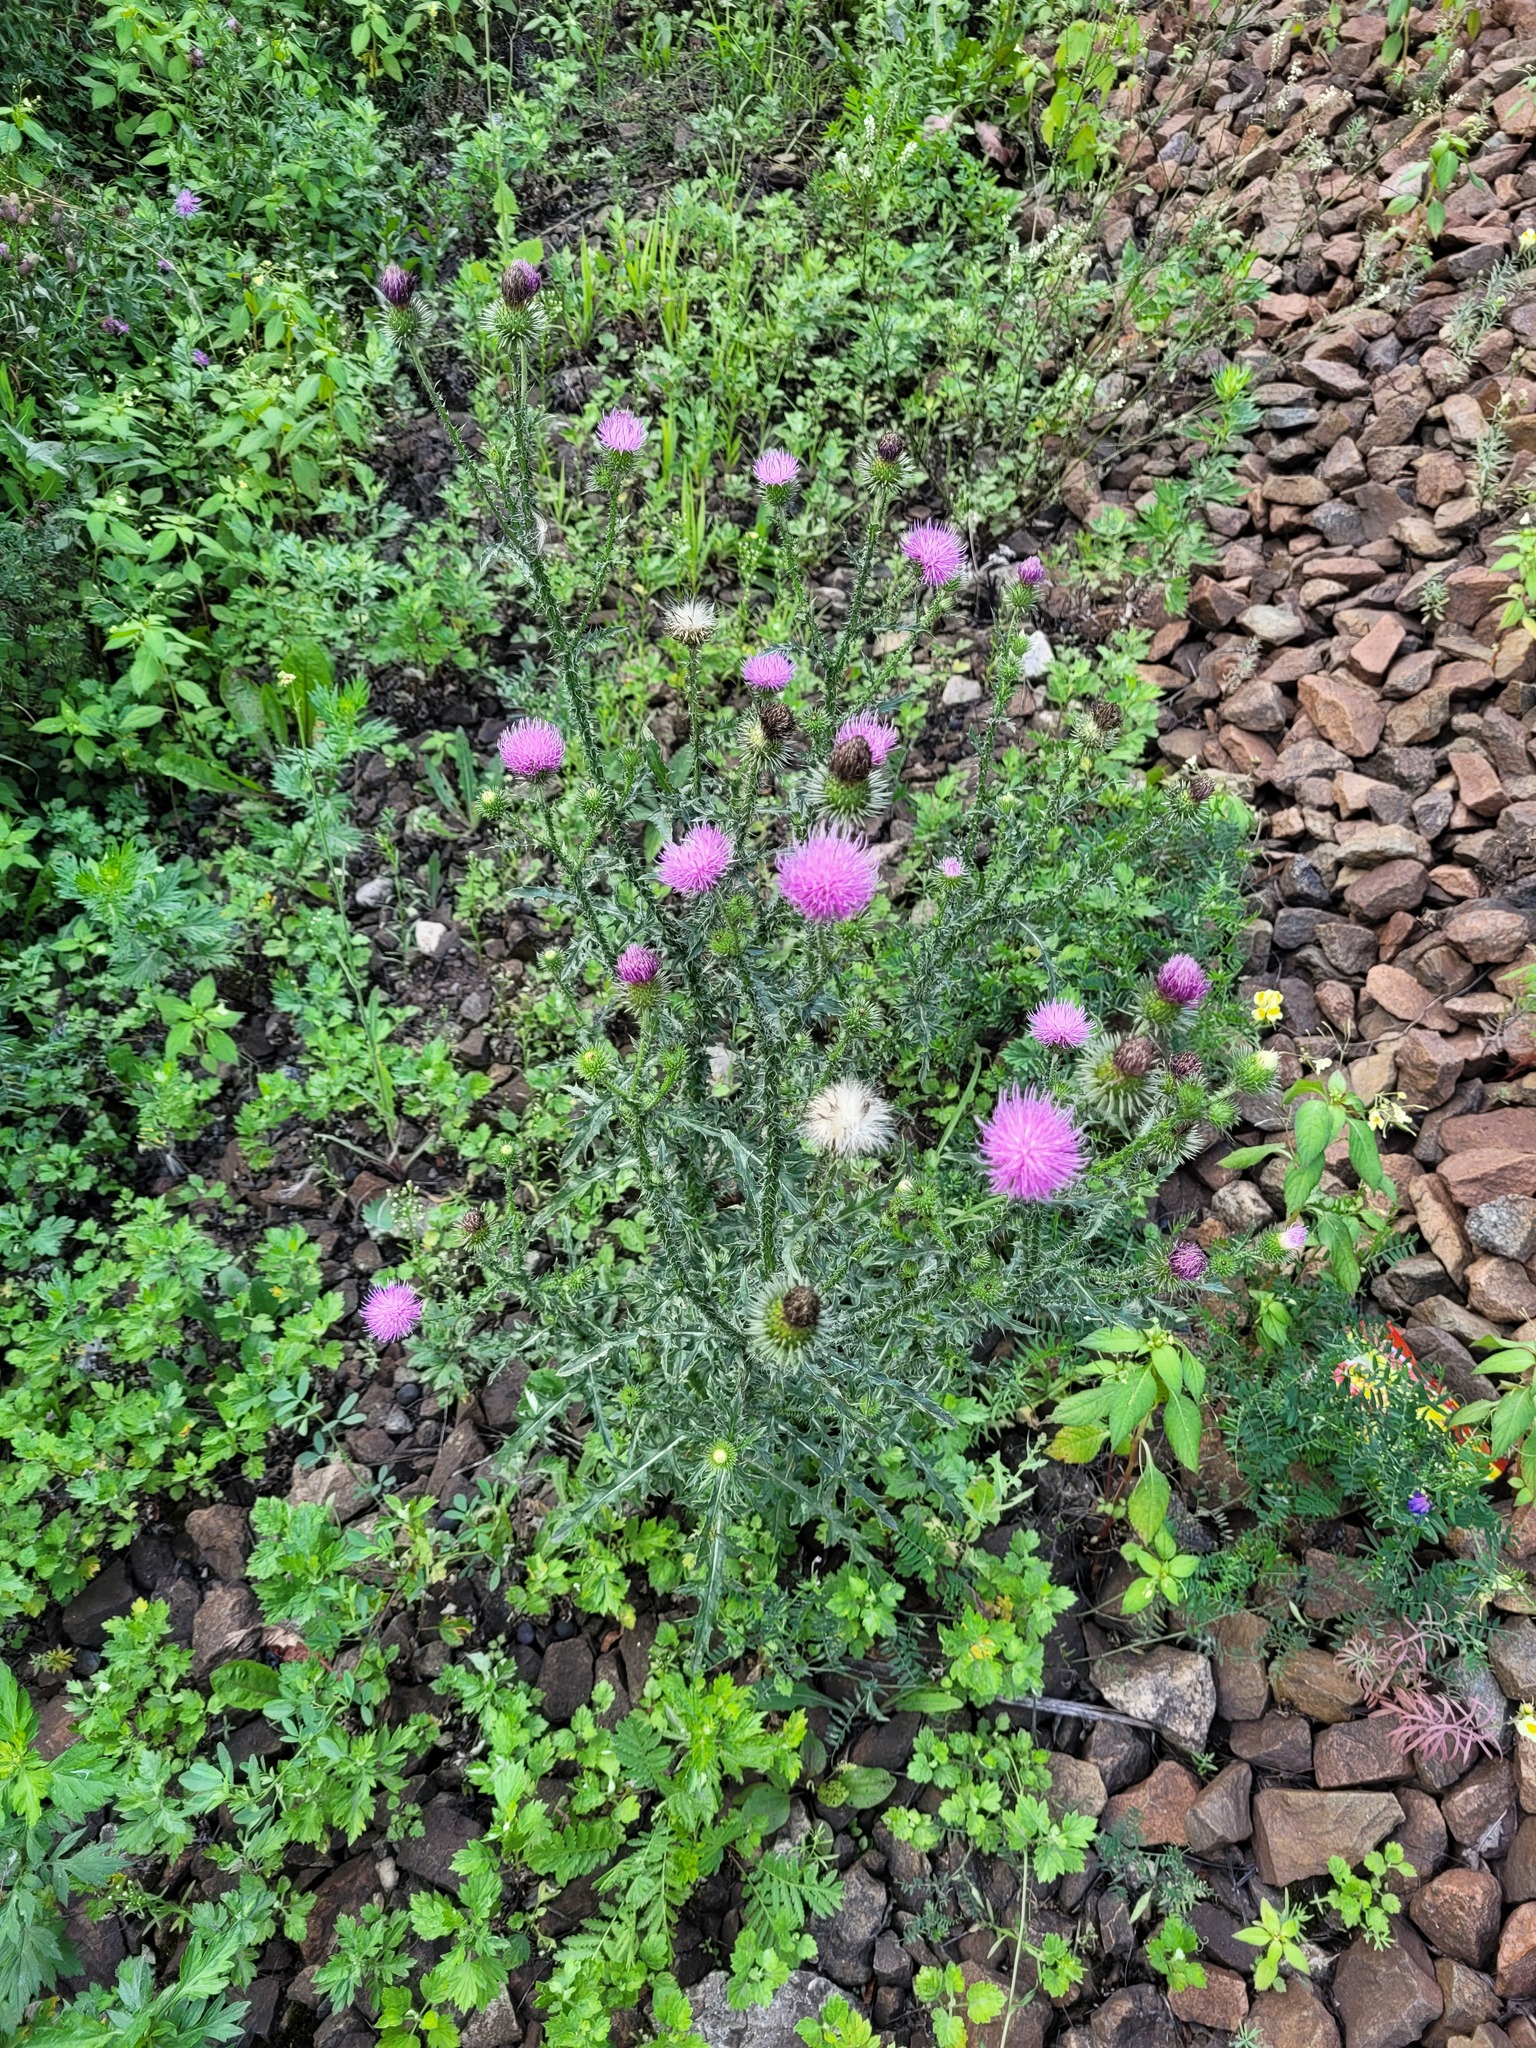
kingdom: Plantae
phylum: Tracheophyta
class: Magnoliopsida
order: Asterales
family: Asteraceae
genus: Carduus
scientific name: Carduus acanthoides
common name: Plumeless thistle
